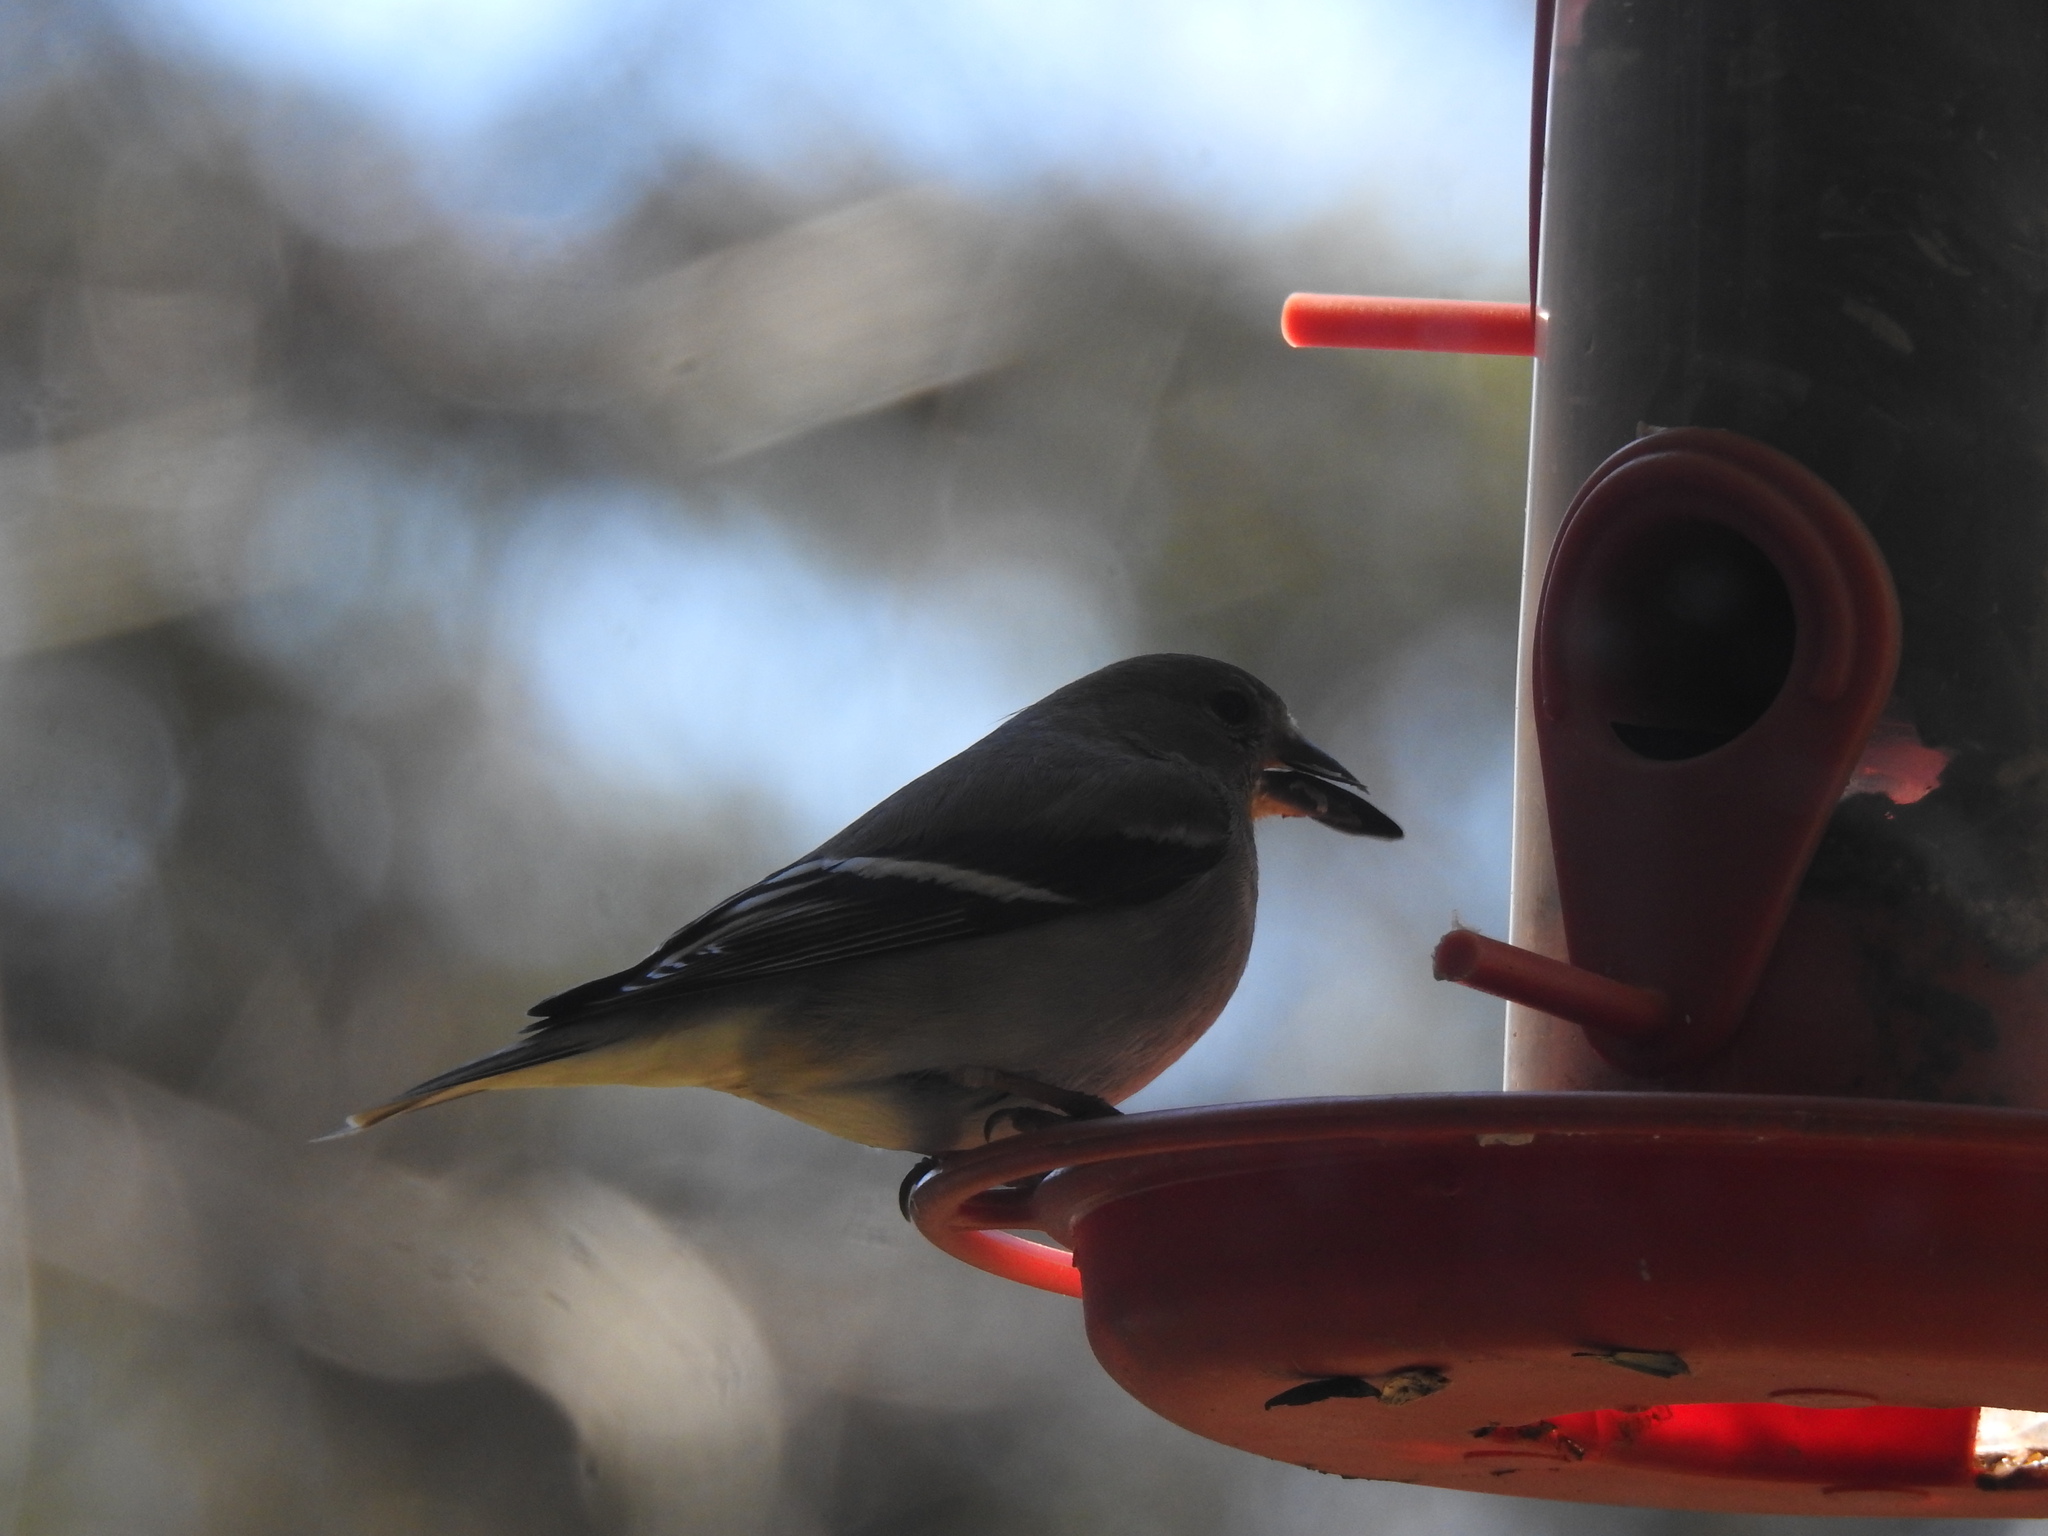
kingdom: Animalia
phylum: Chordata
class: Aves
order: Passeriformes
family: Fringillidae
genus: Spinus
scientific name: Spinus tristis
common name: American goldfinch
